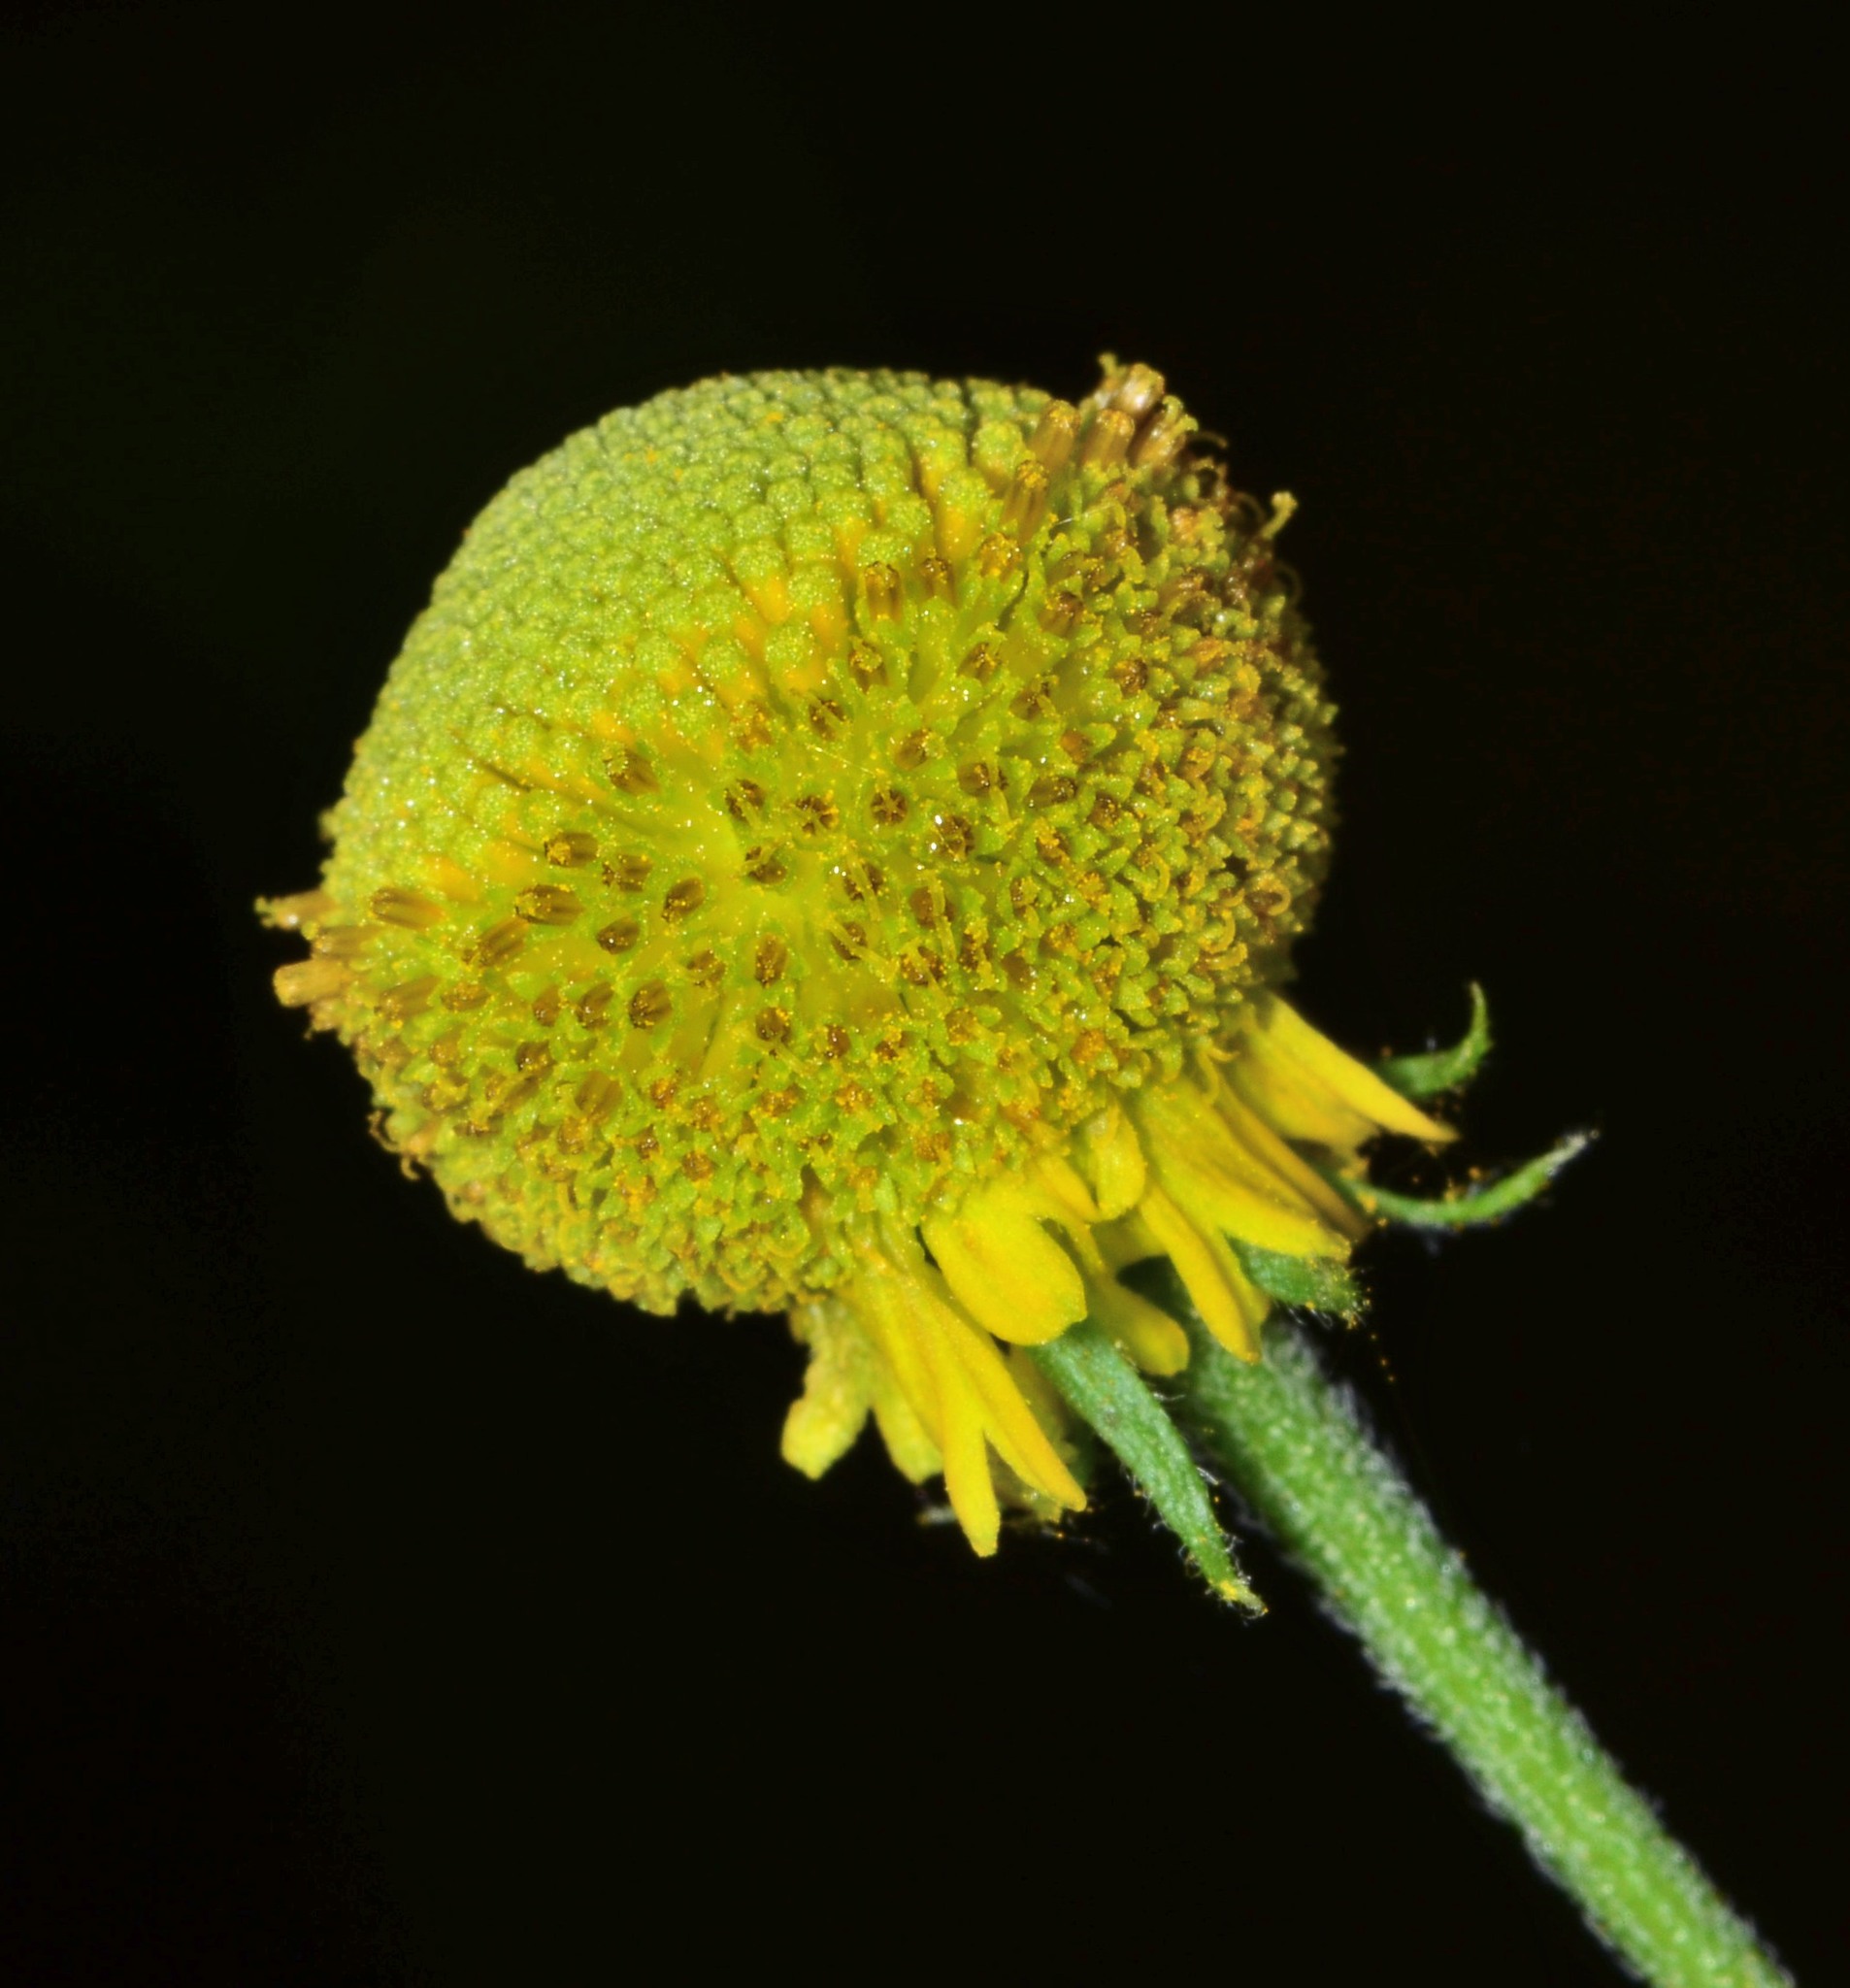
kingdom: Plantae
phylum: Tracheophyta
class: Magnoliopsida
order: Asterales
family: Asteraceae
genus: Helenium
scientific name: Helenium puberulum
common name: Sneezewort
